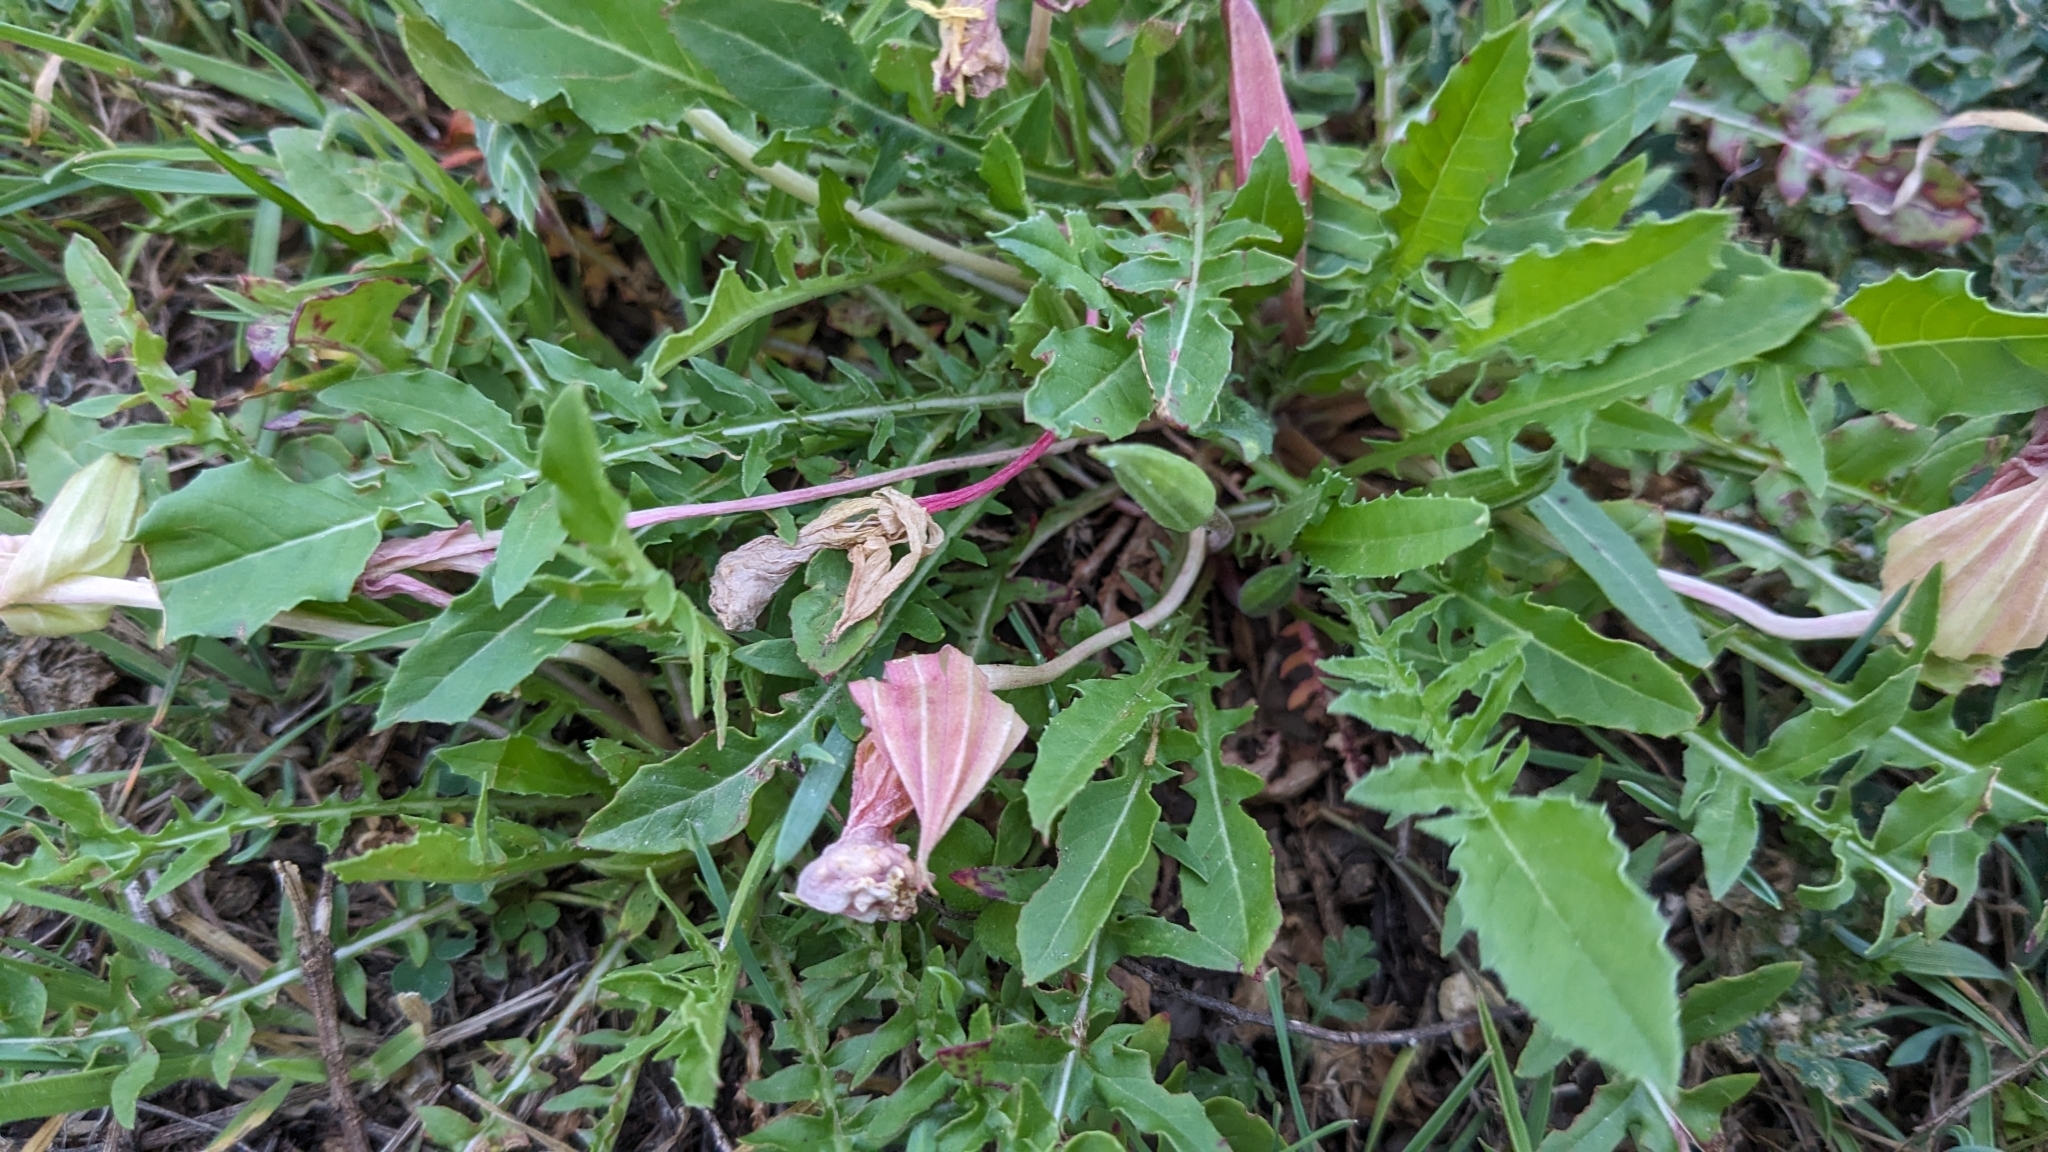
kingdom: Plantae
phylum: Tracheophyta
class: Magnoliopsida
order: Myrtales
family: Onagraceae
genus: Oenothera
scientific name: Oenothera triloba
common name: Sessile evening-primrose
